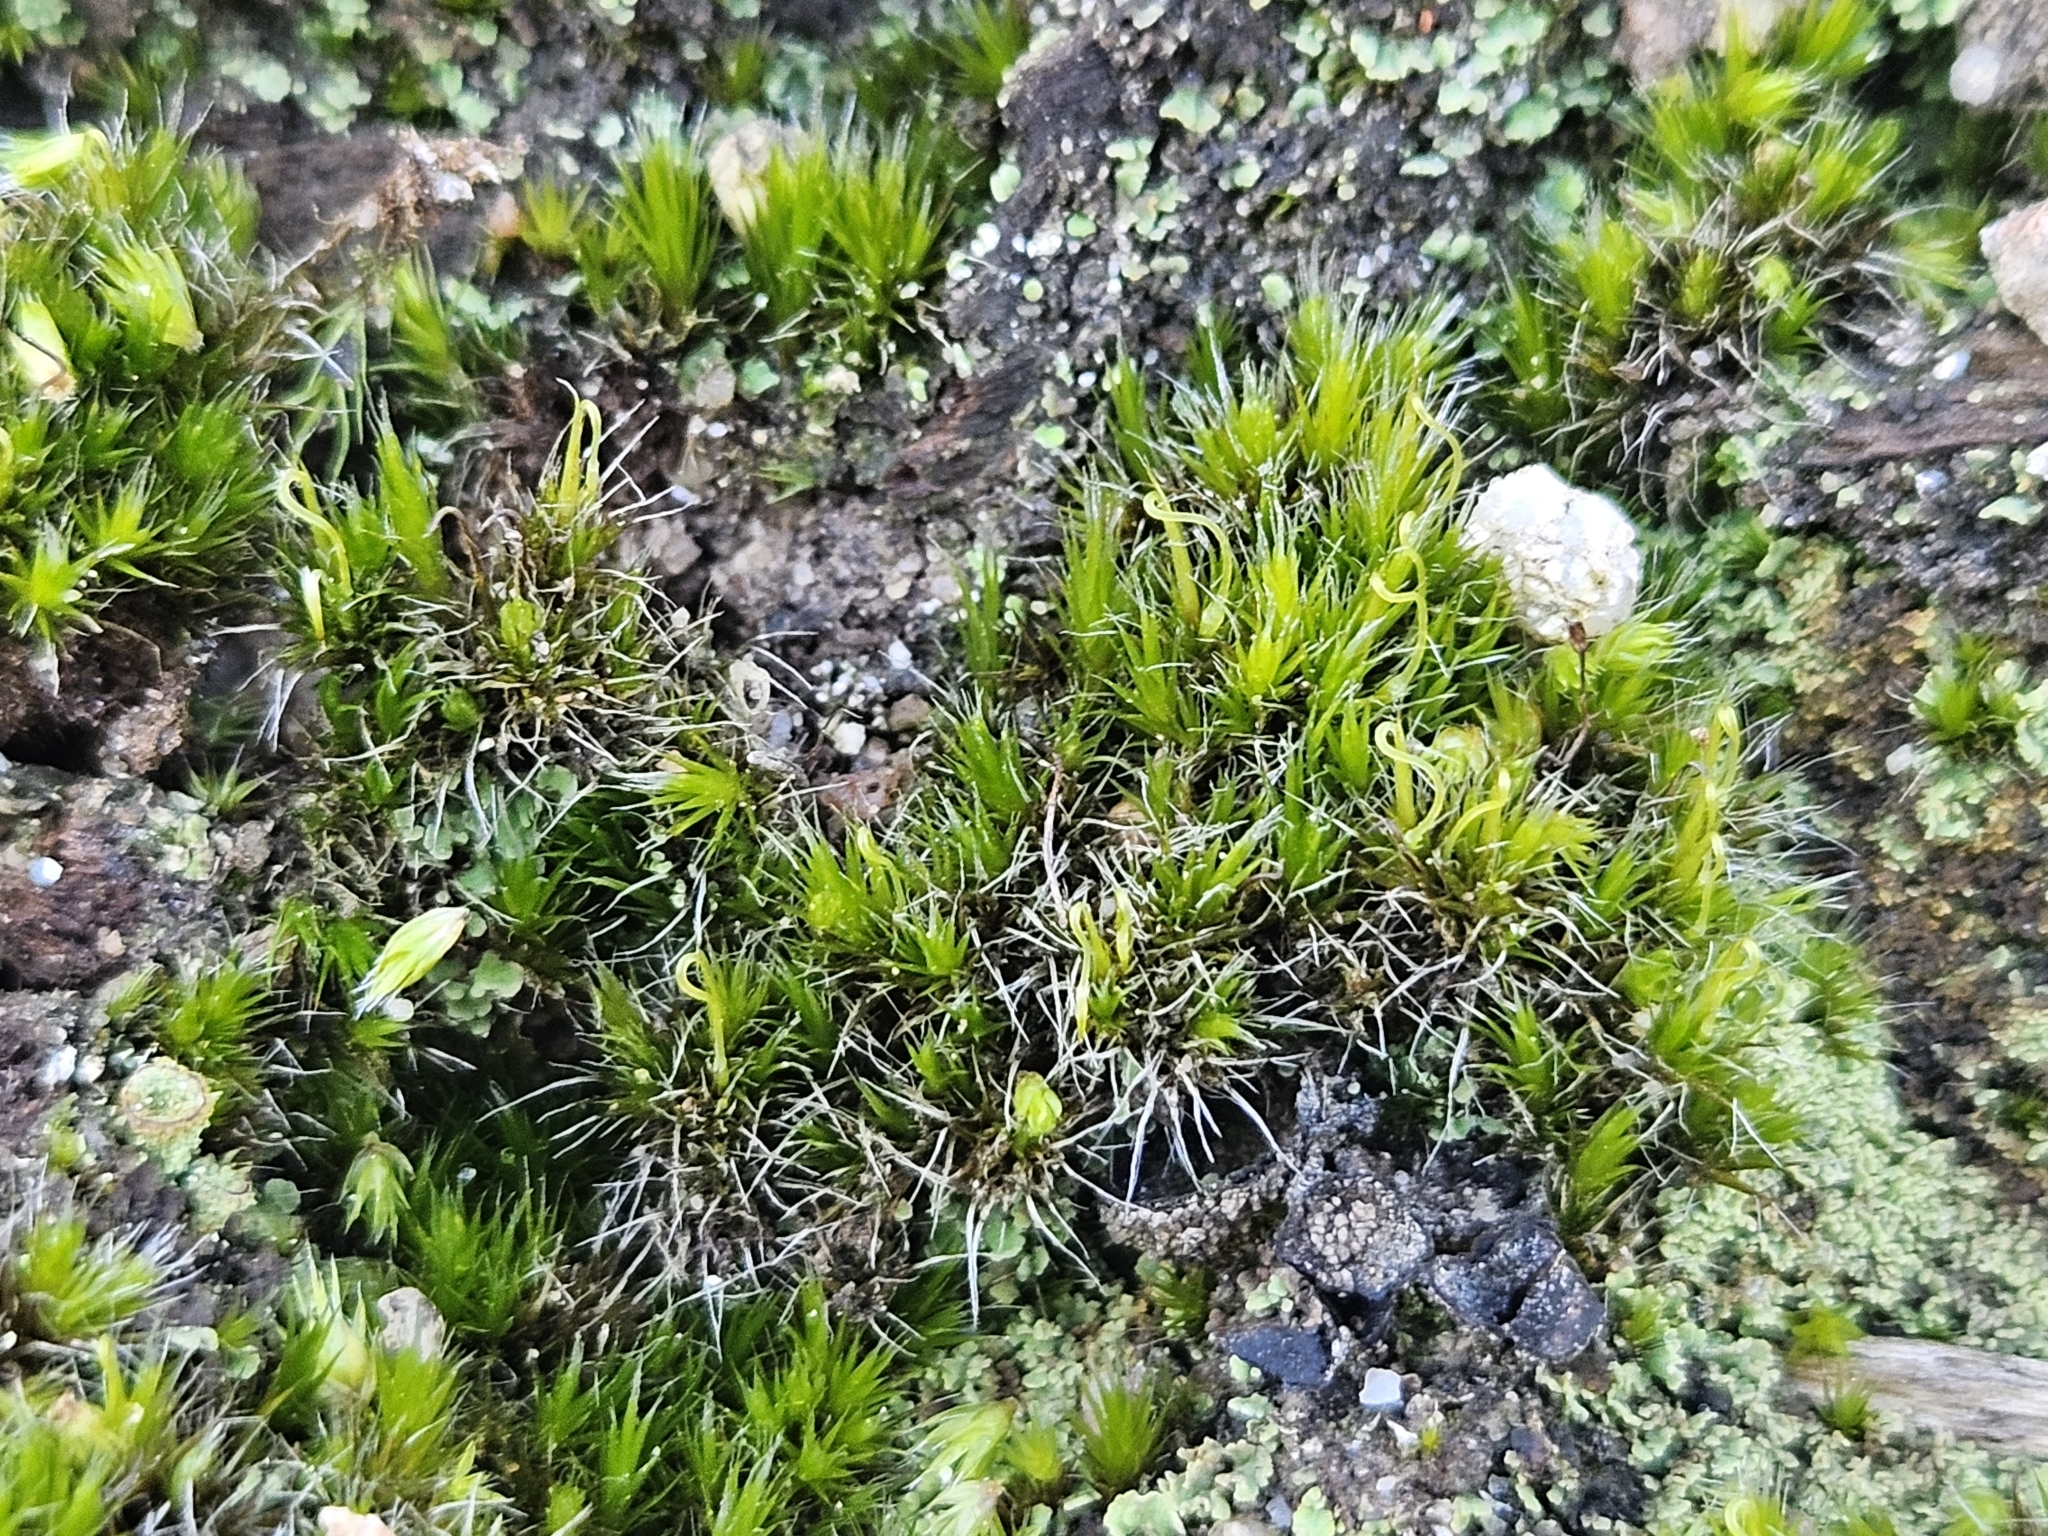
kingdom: Plantae
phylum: Bryophyta
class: Bryopsida
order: Dicranales
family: Leucobryaceae
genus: Campylopus
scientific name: Campylopus introflexus
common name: Heath star moss
